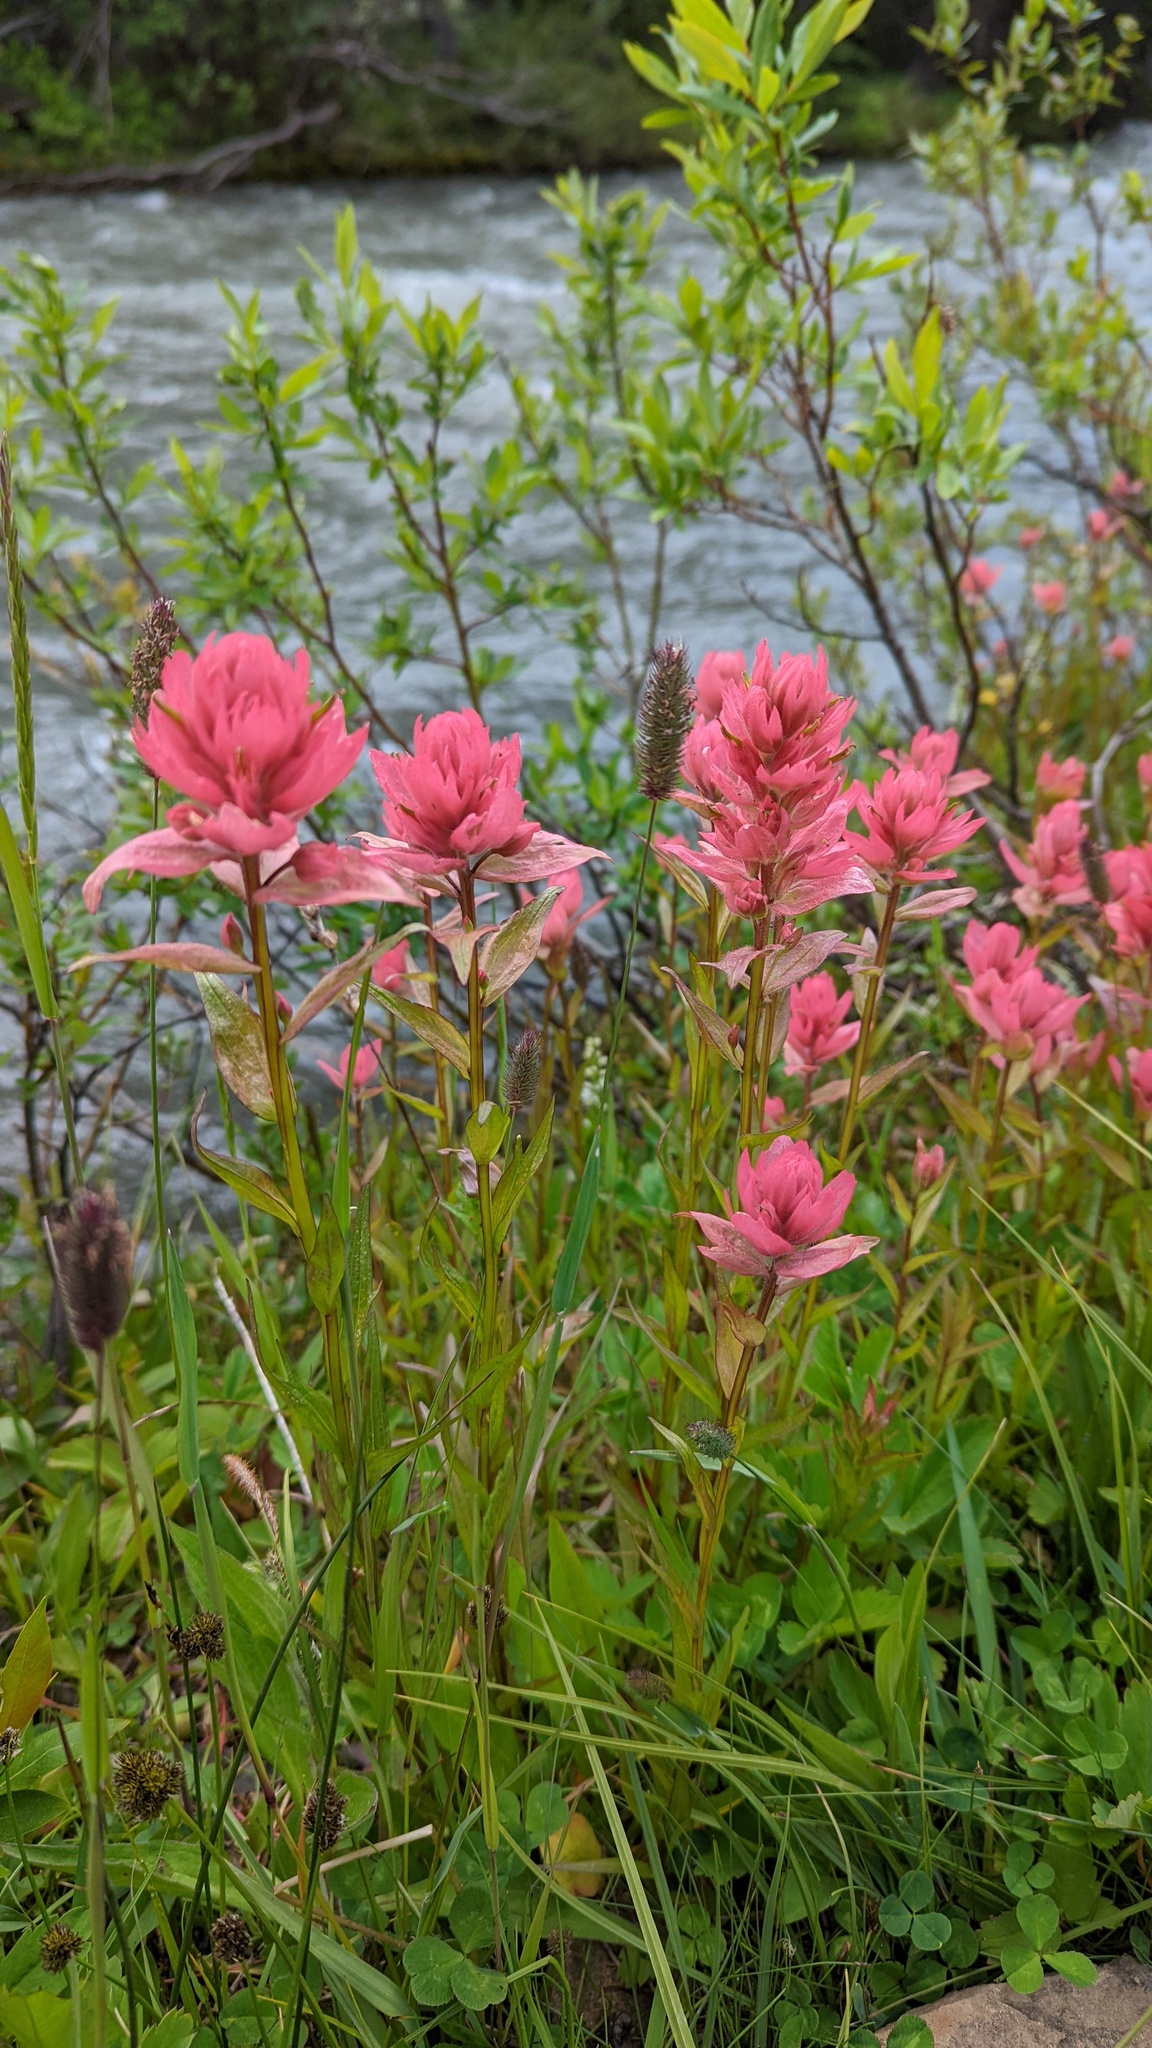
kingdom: Plantae
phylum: Tracheophyta
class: Magnoliopsida
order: Lamiales
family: Orobanchaceae
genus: Castilleja
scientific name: Castilleja miniata
